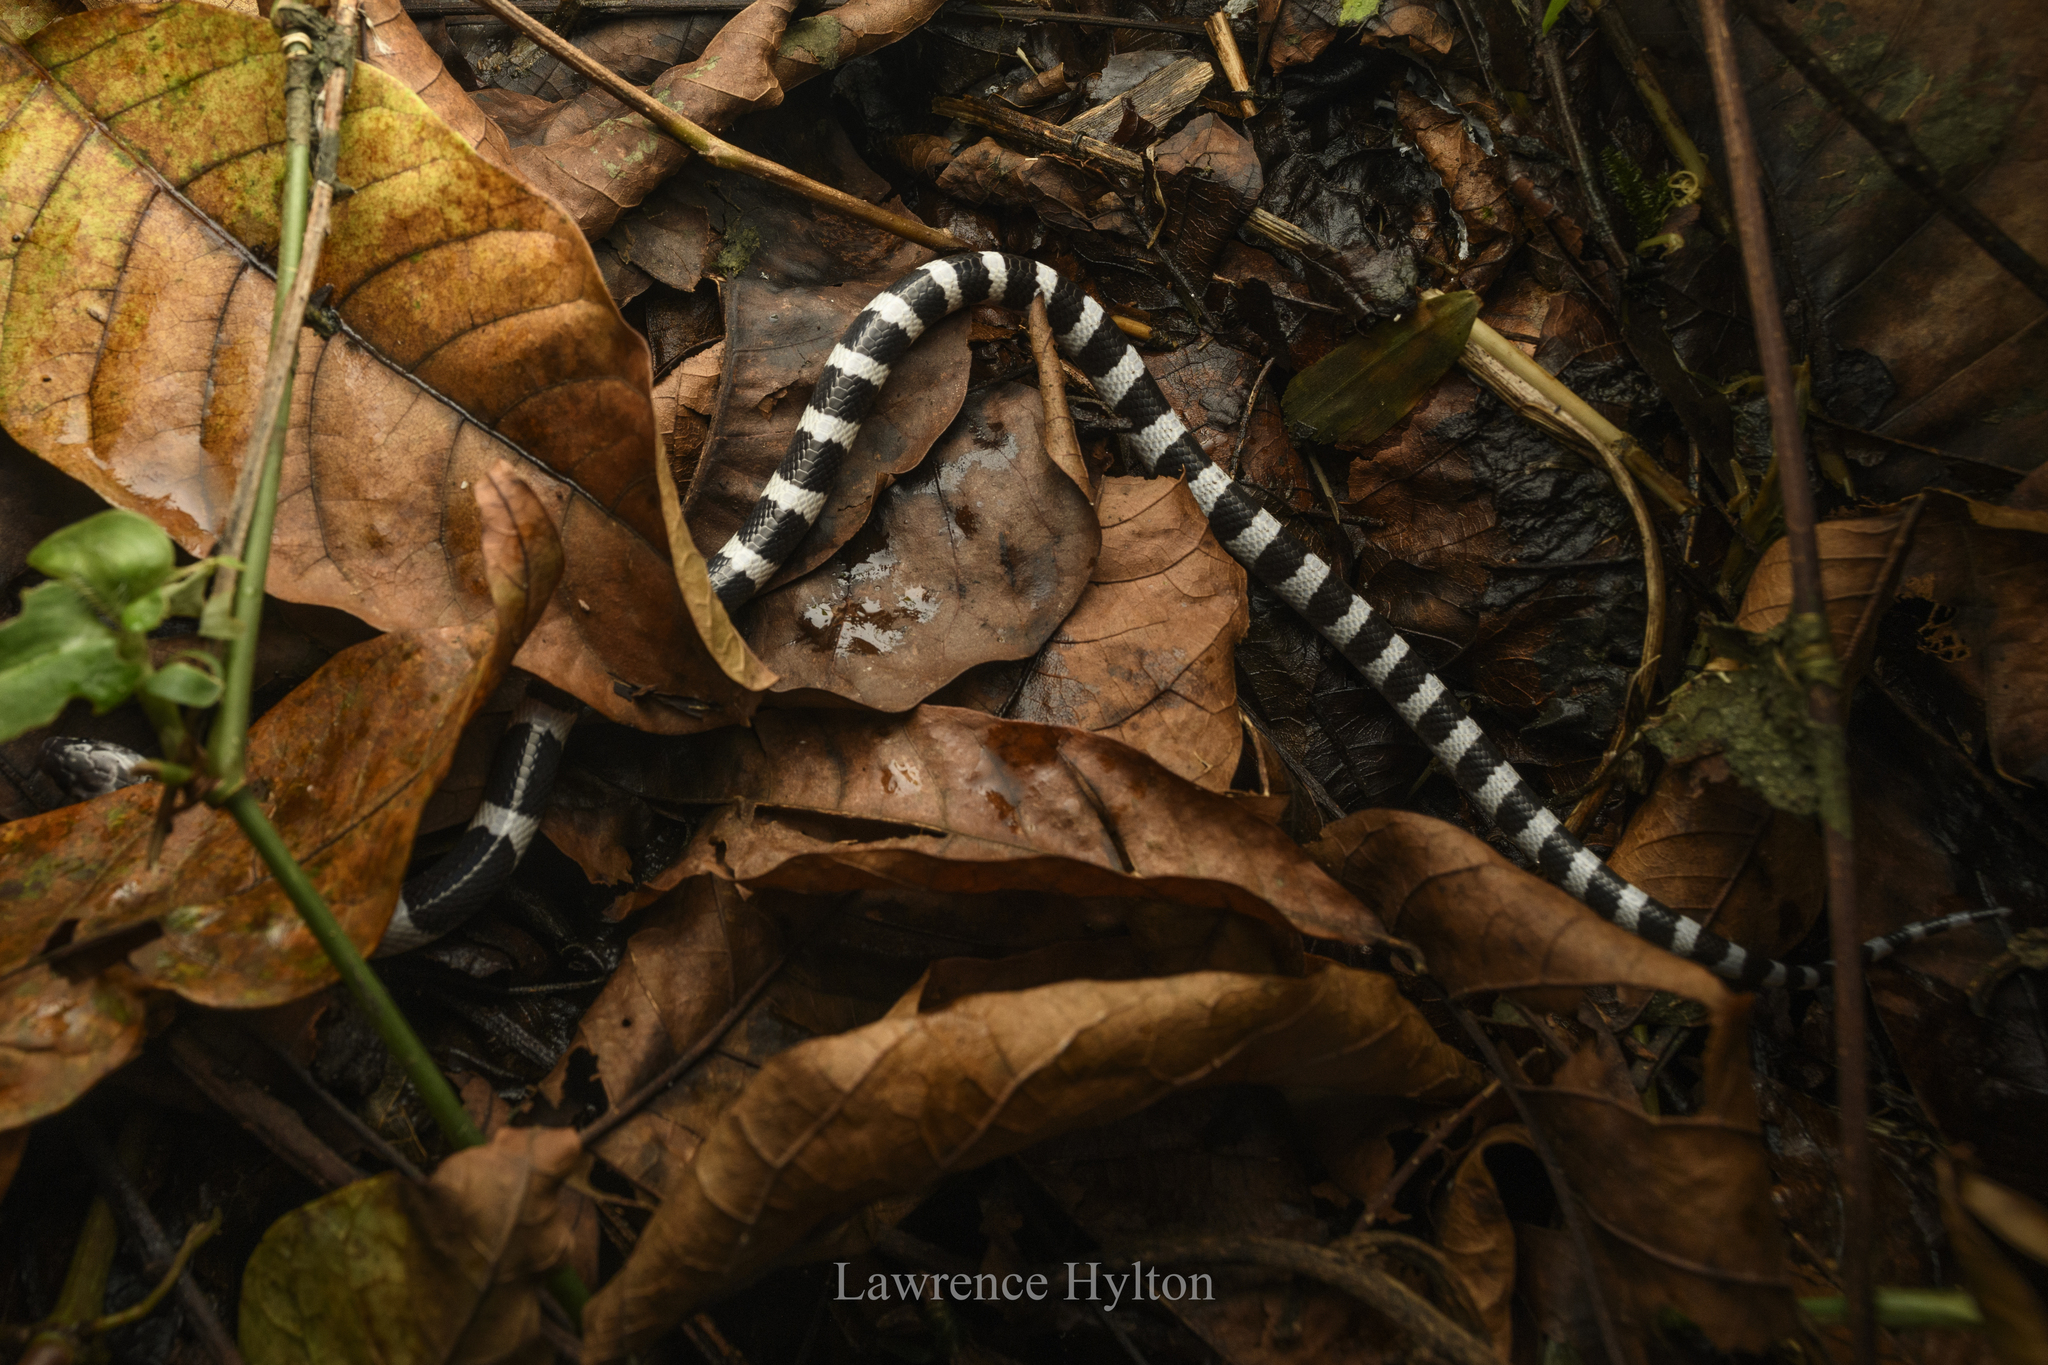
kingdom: Animalia
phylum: Chordata
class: Squamata
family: Elapidae
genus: Bungarus
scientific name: Bungarus multicinctus
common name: Many-banded krait
